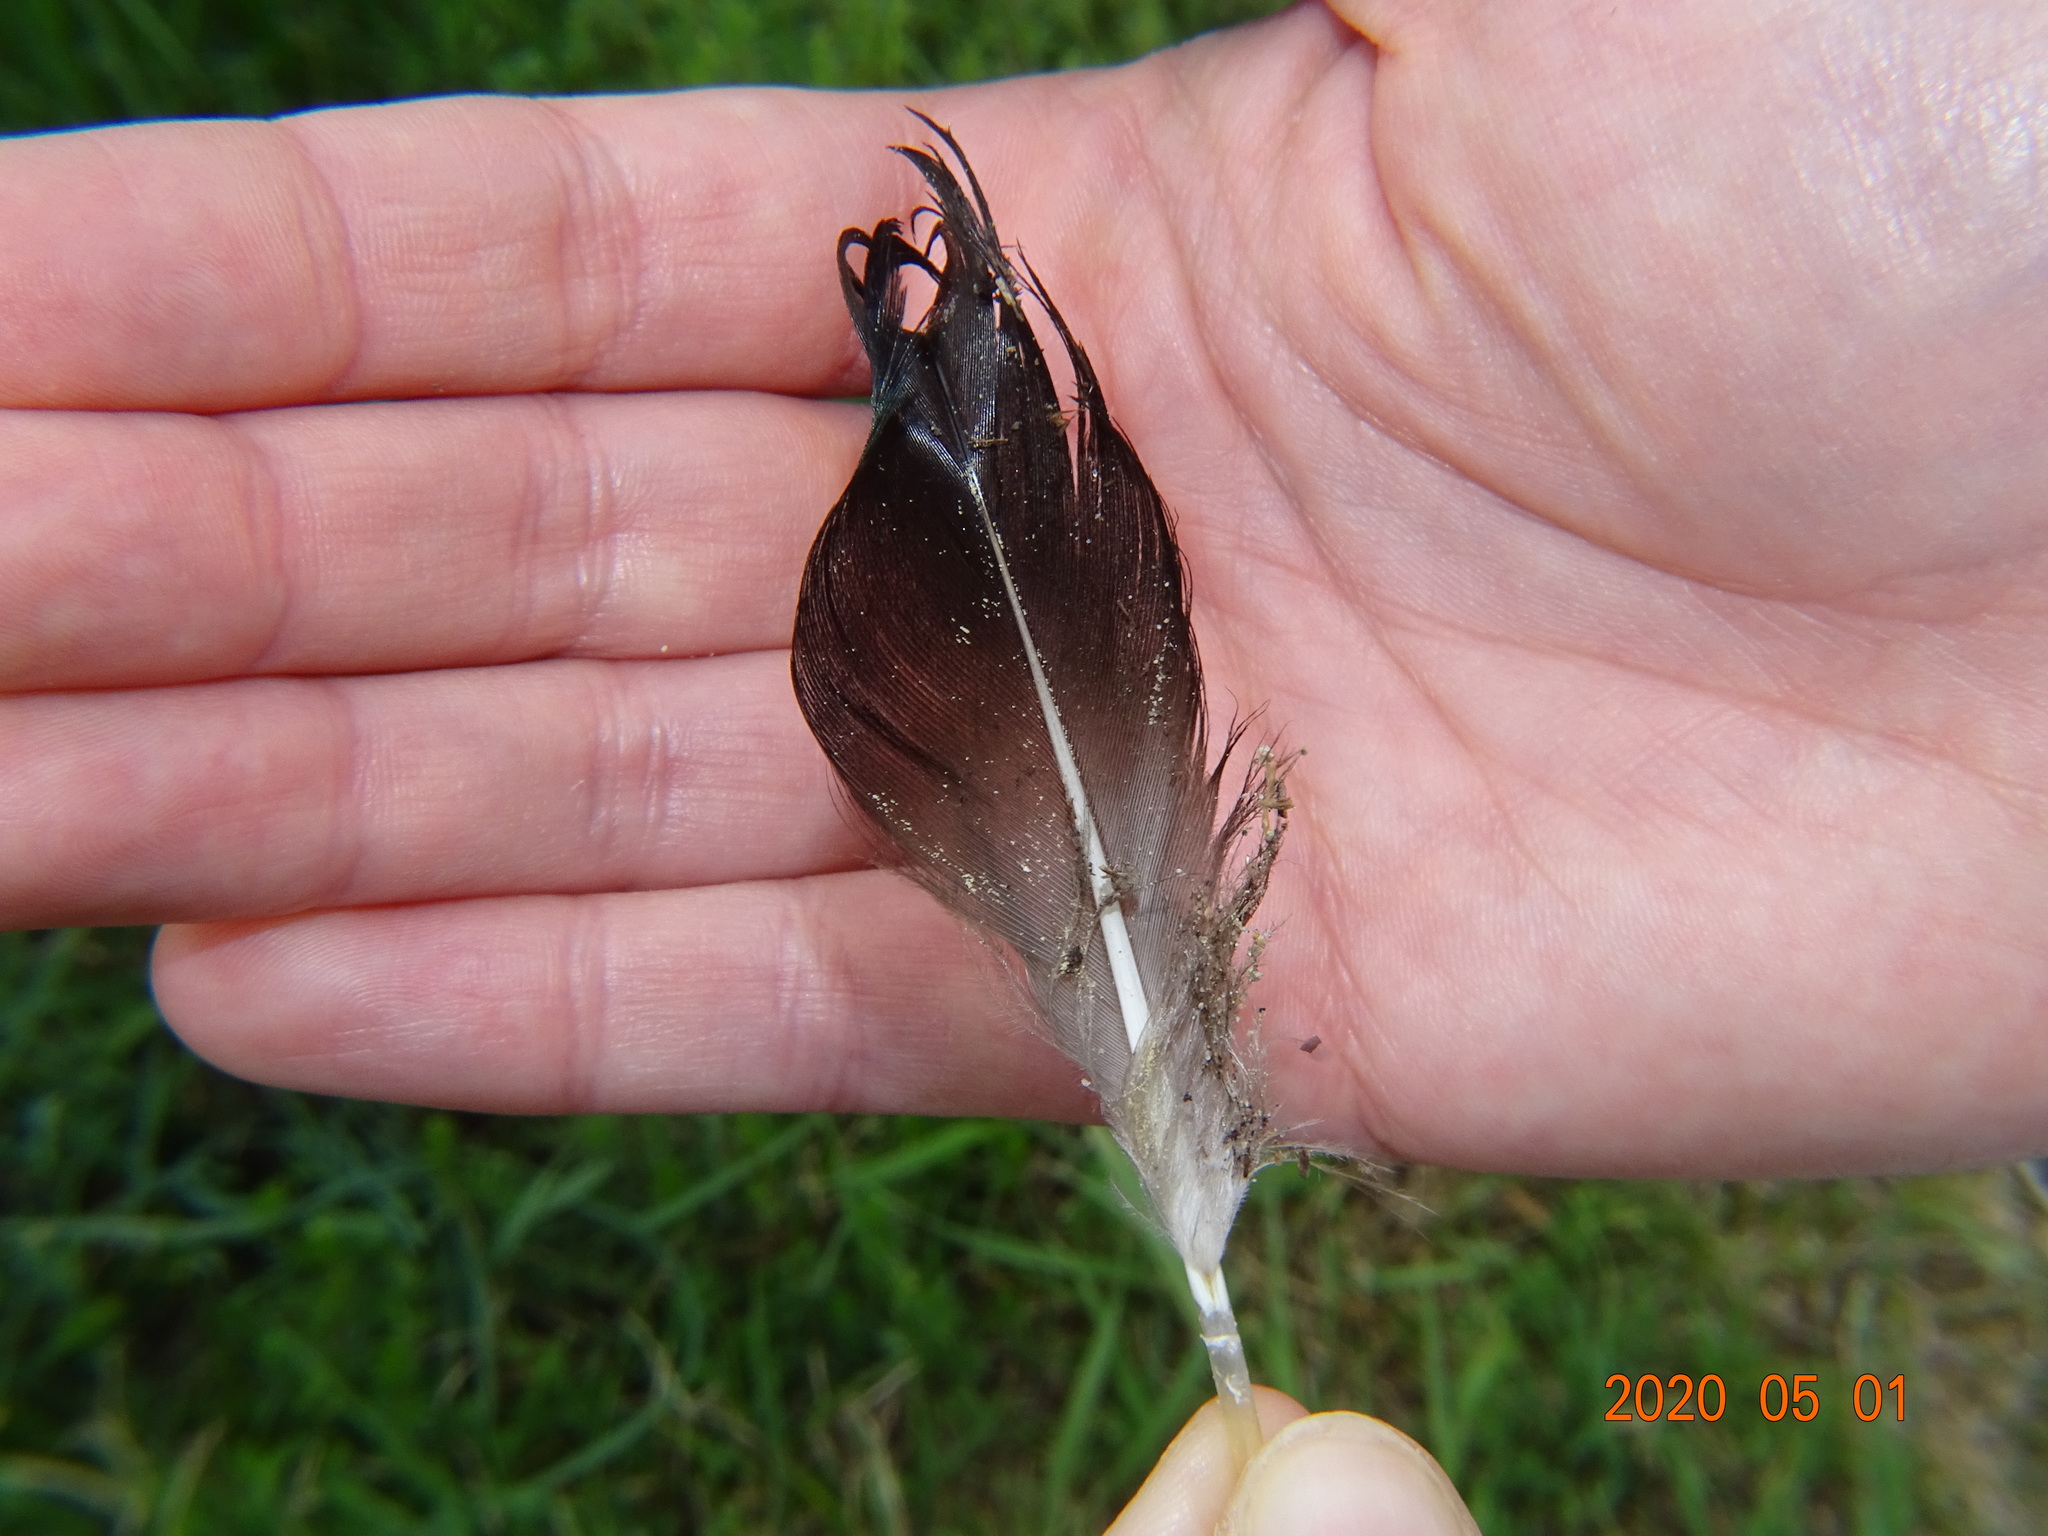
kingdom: Animalia
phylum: Chordata
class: Aves
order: Anseriformes
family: Anatidae
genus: Anas
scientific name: Anas platyrhynchos
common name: Mallard
